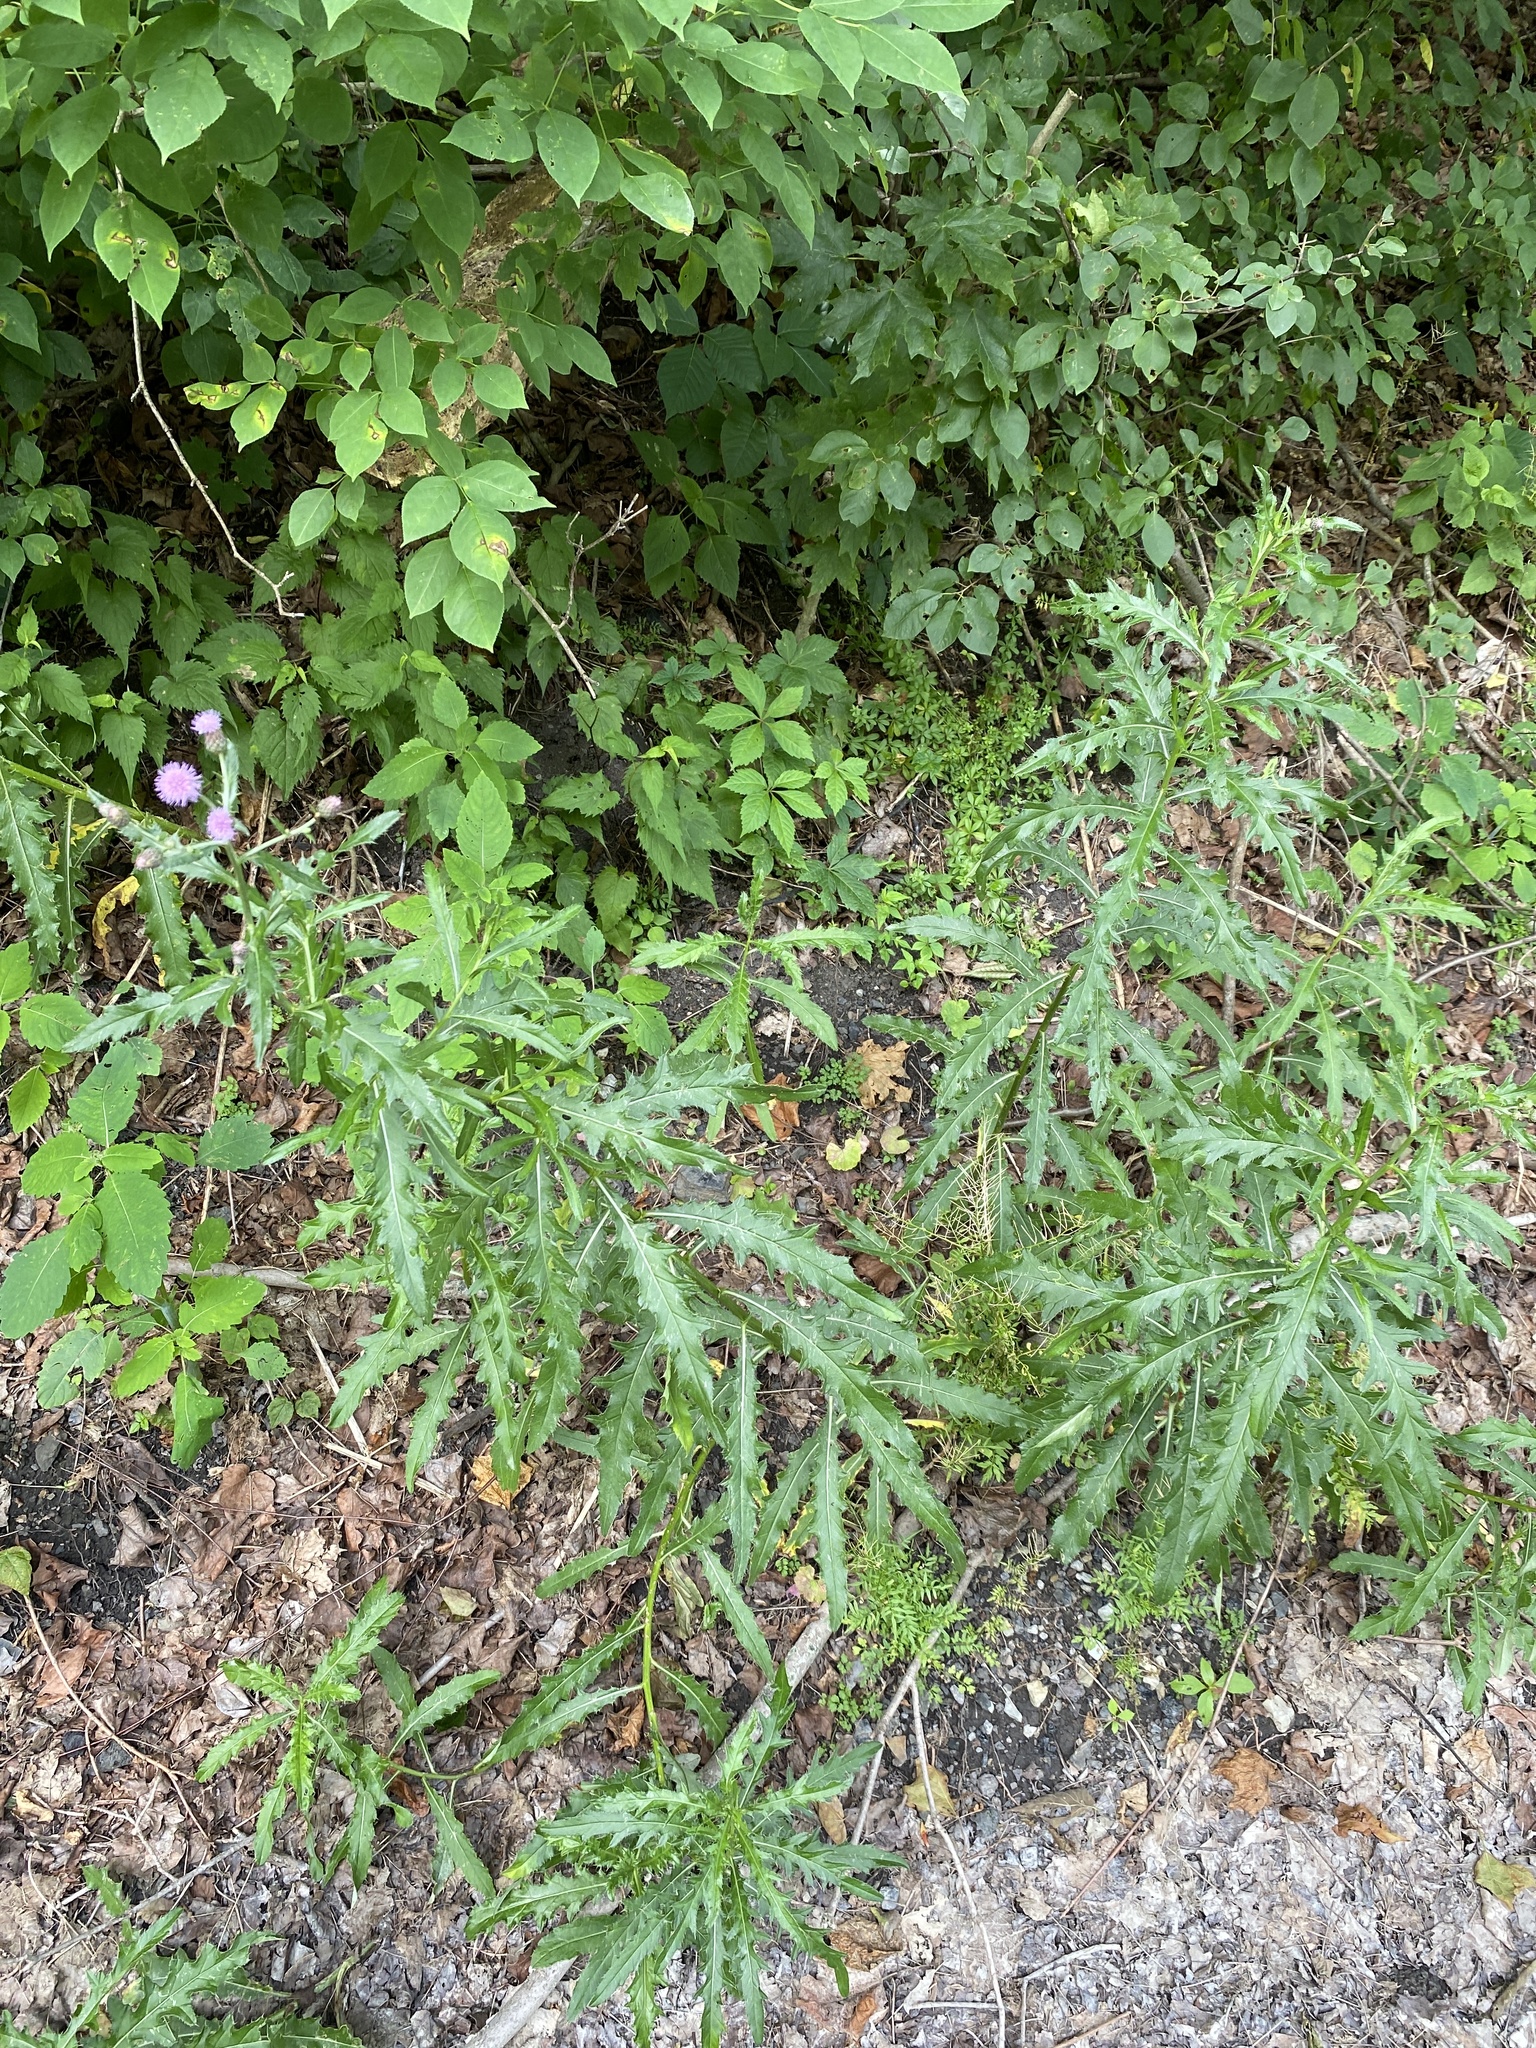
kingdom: Plantae
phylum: Tracheophyta
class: Magnoliopsida
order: Asterales
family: Asteraceae
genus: Cirsium
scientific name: Cirsium arvense
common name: Creeping thistle
